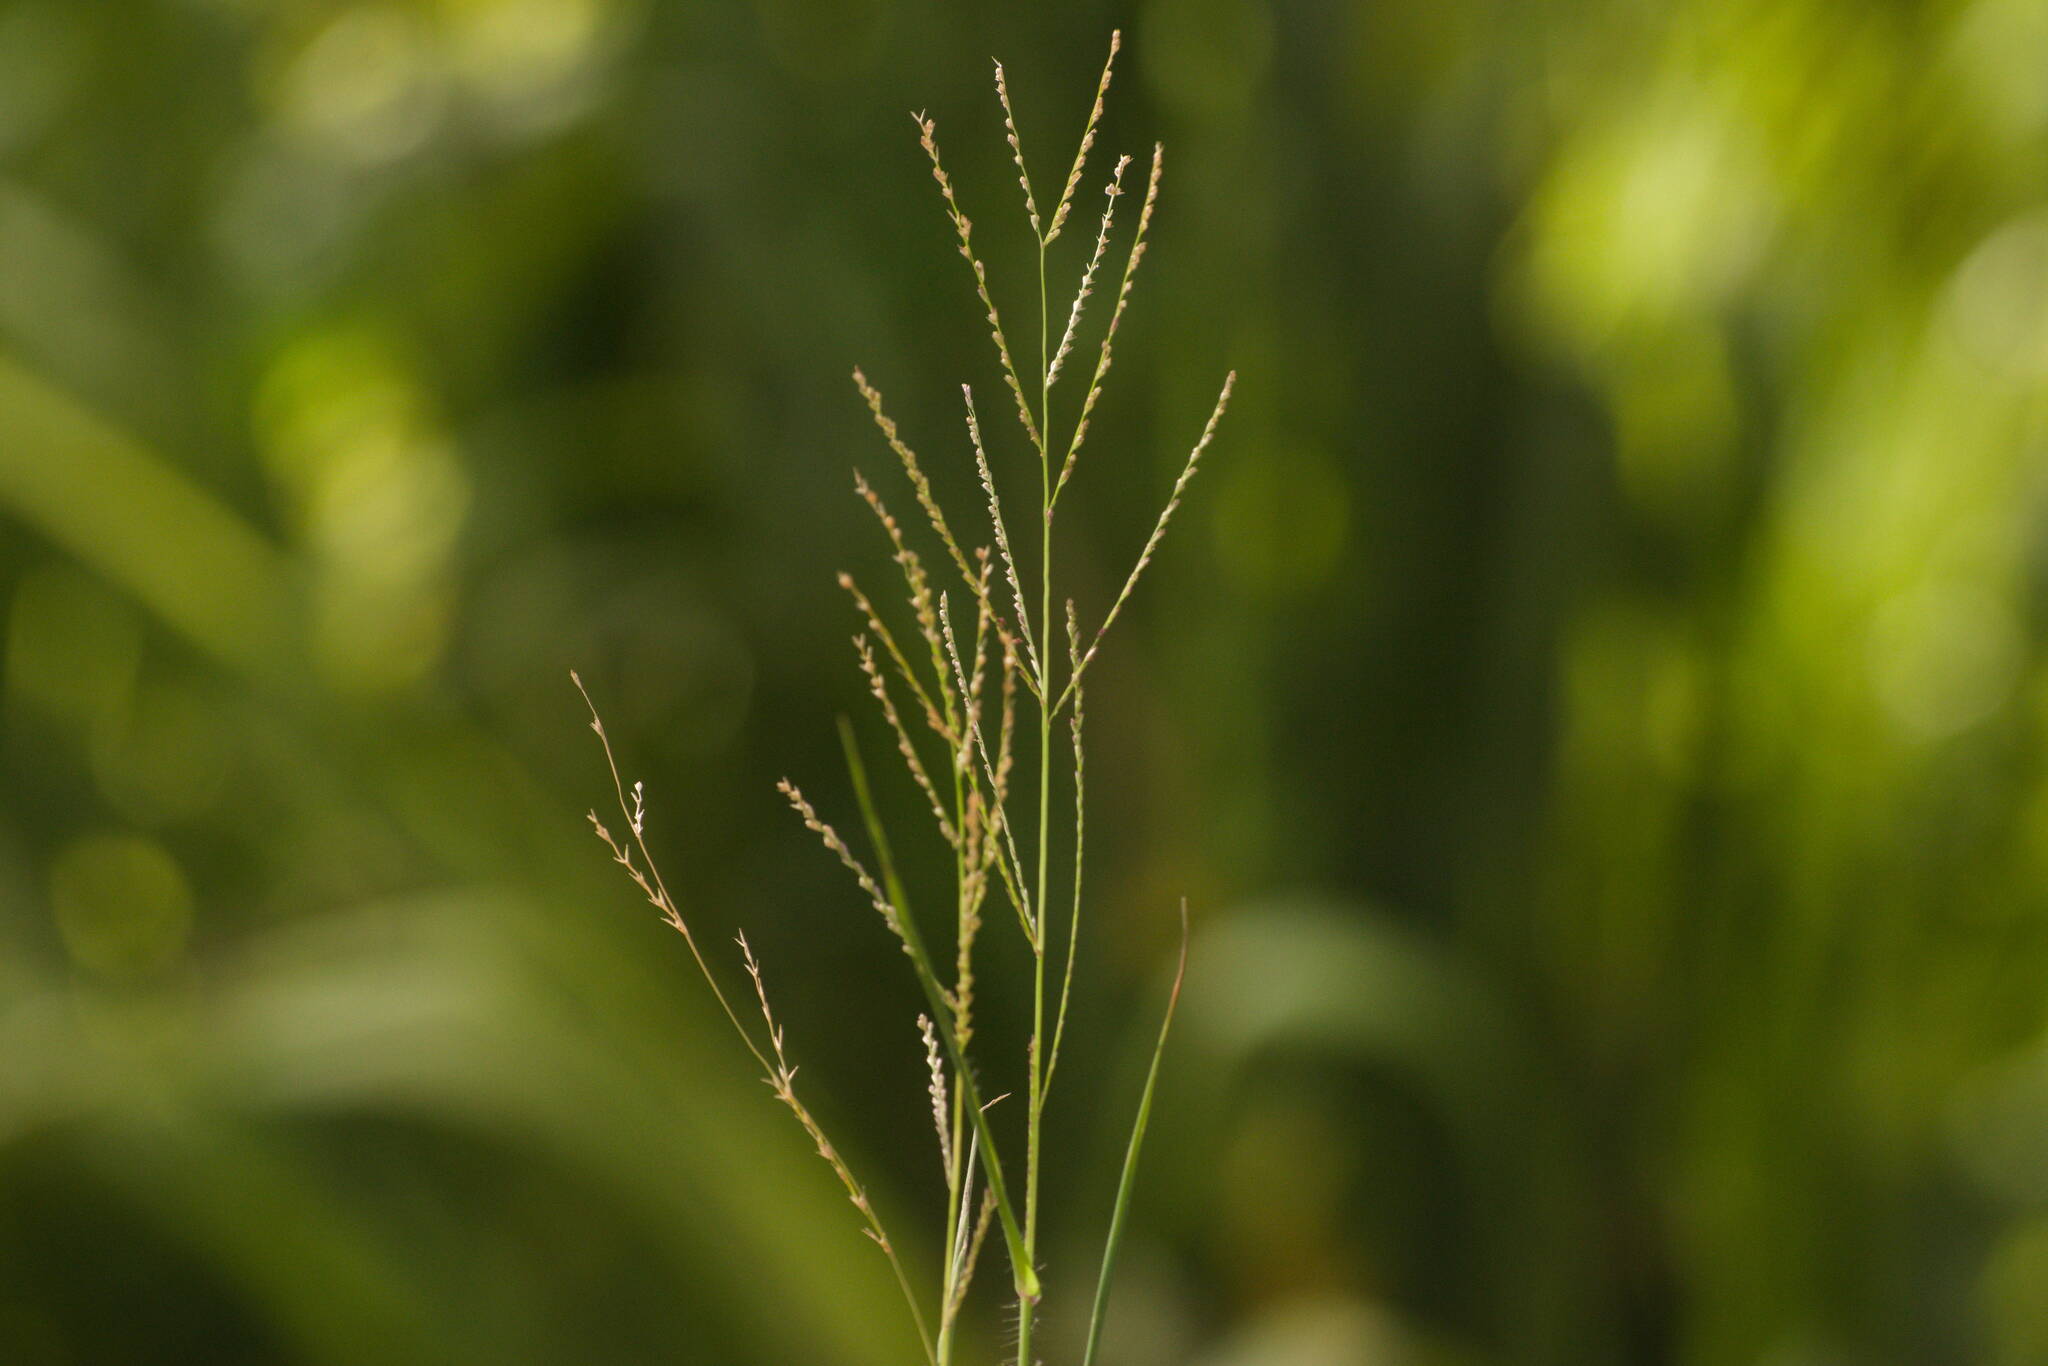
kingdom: Plantae
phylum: Tracheophyta
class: Liliopsida
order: Poales
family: Poaceae
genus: Leptochloa
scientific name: Leptochloa panicea
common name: Mucronate sprangletop
